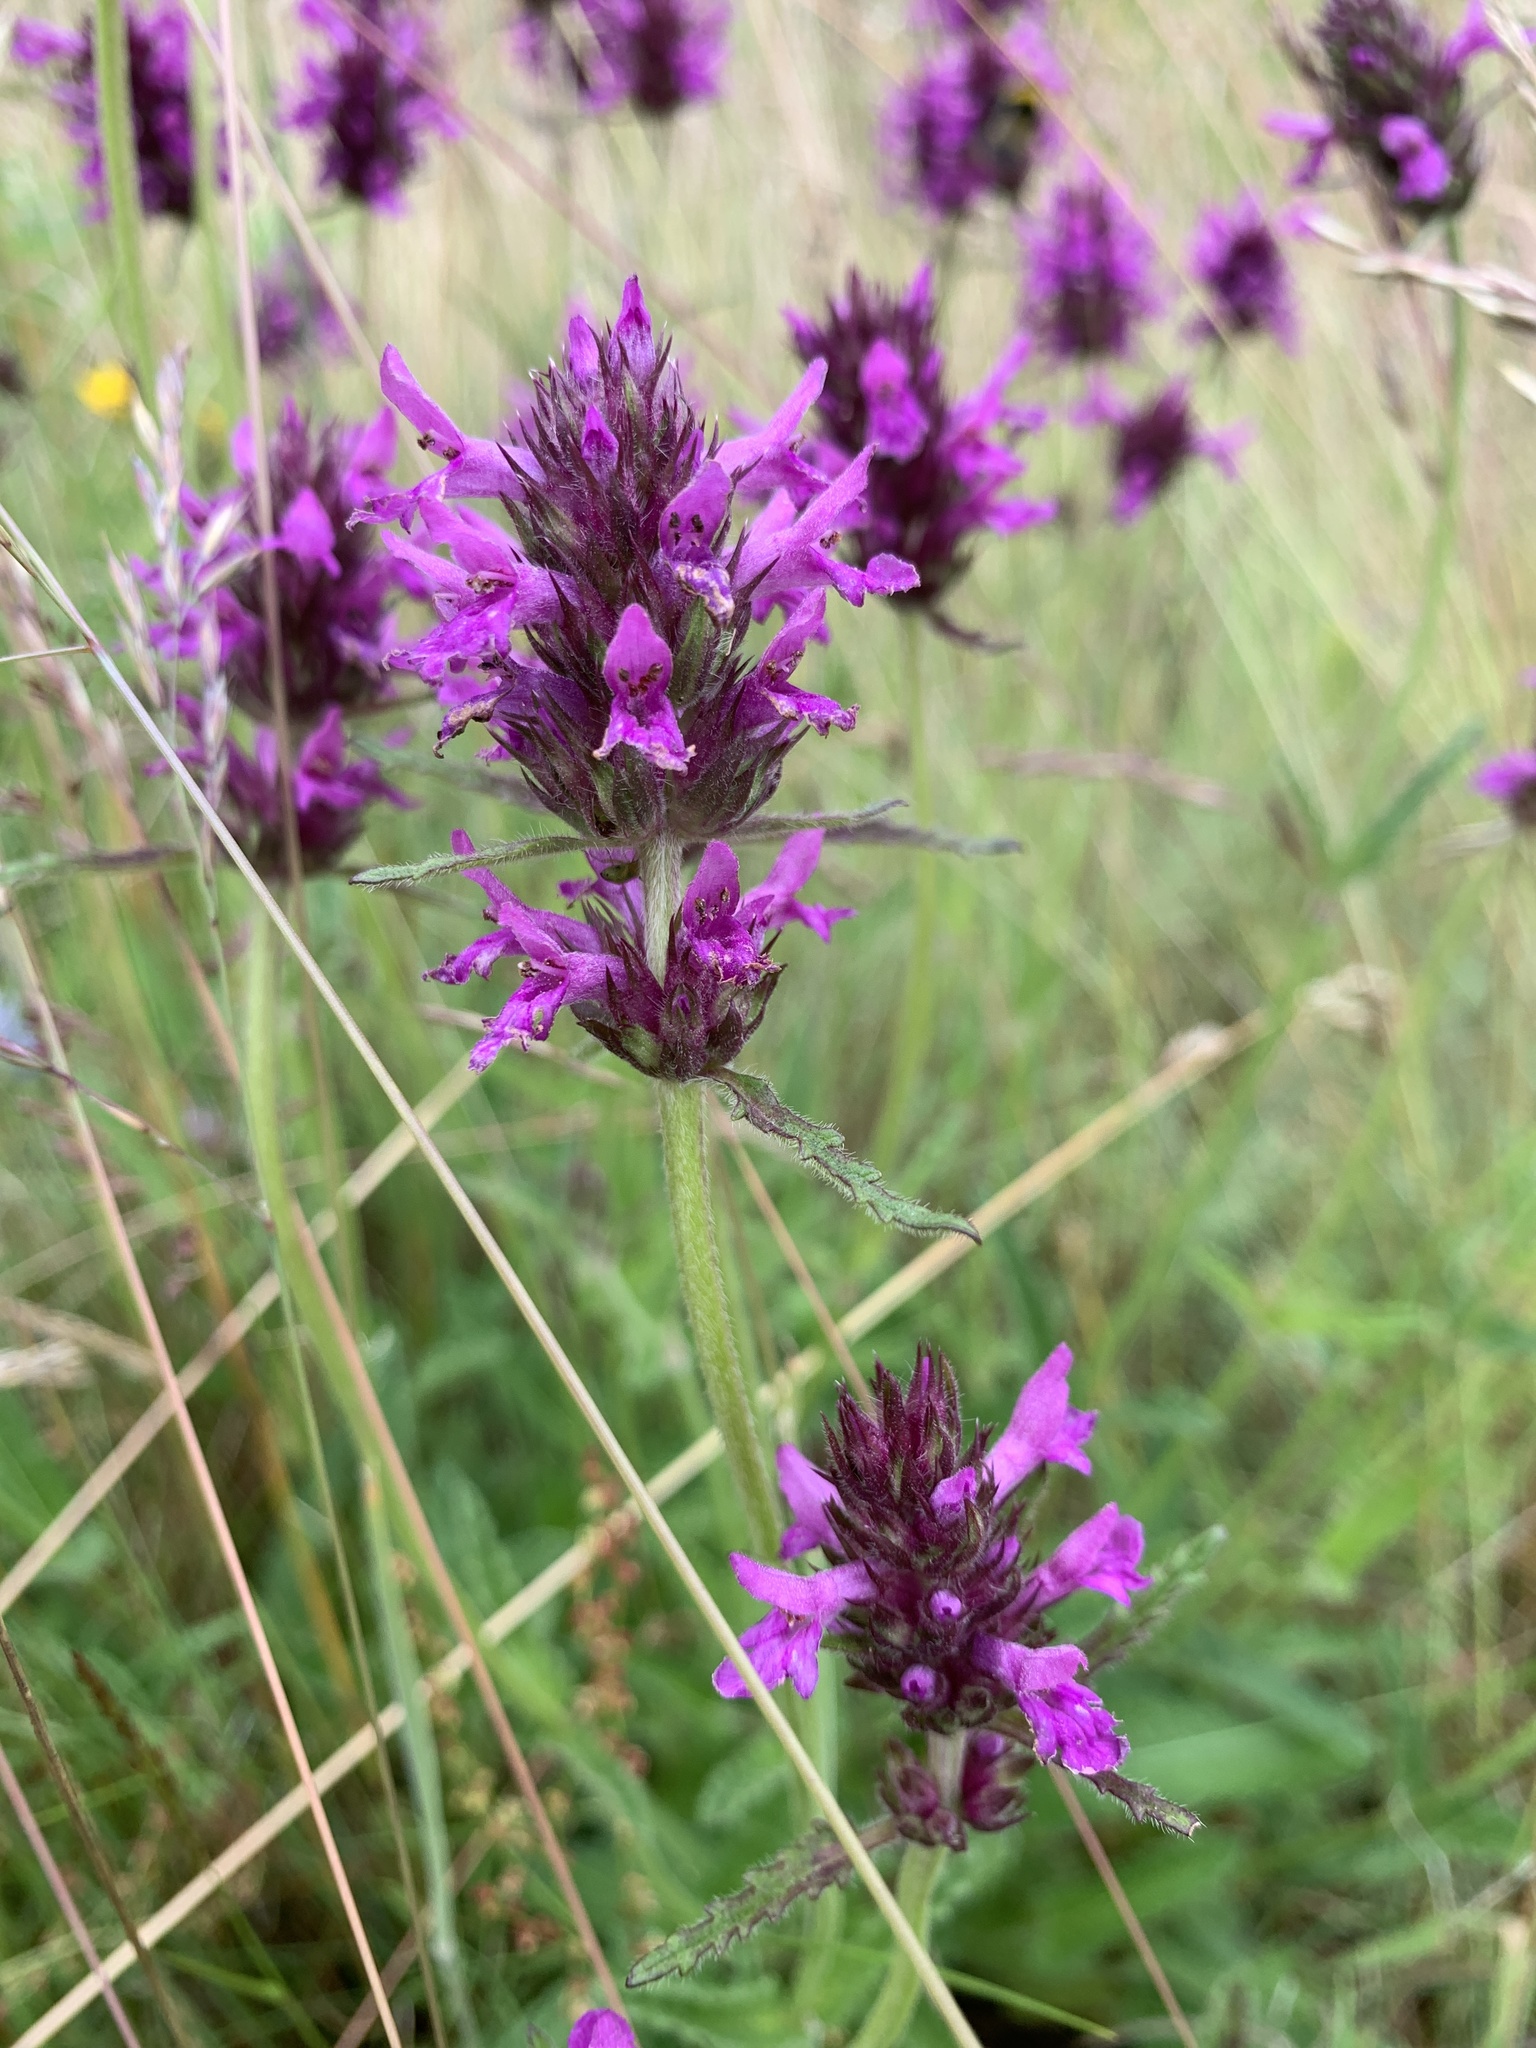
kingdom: Plantae
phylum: Tracheophyta
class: Magnoliopsida
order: Lamiales
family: Lamiaceae
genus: Stachys
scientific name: Stachys palustris
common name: Marsh woundwort
